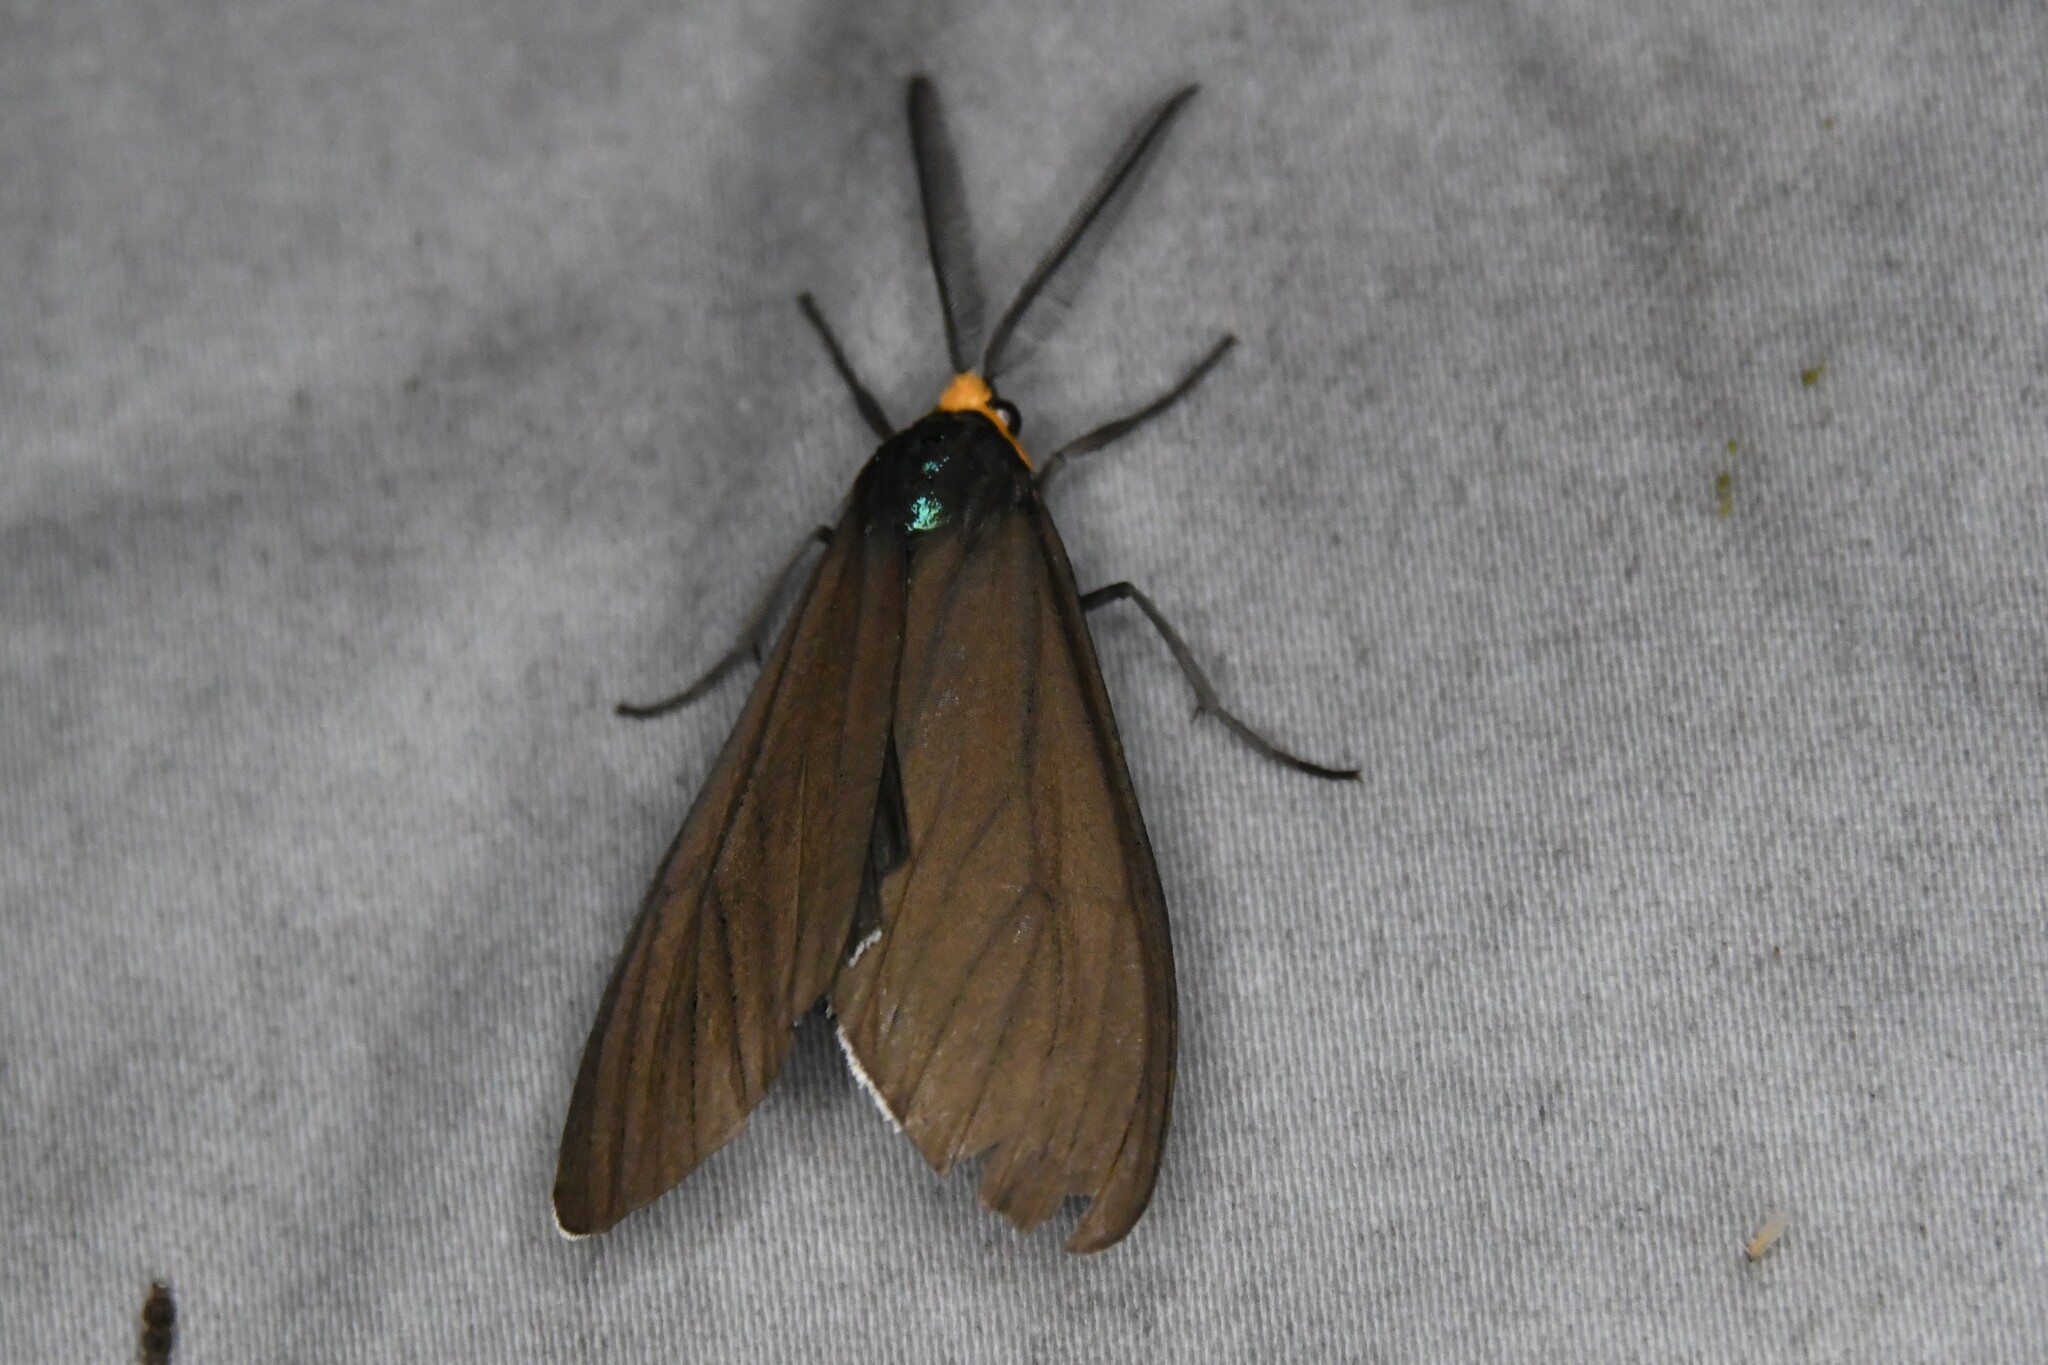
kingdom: Animalia
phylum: Arthropoda
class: Insecta
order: Lepidoptera
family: Erebidae
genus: Ctenucha
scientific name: Ctenucha virginica
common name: Virginia ctenucha moth
